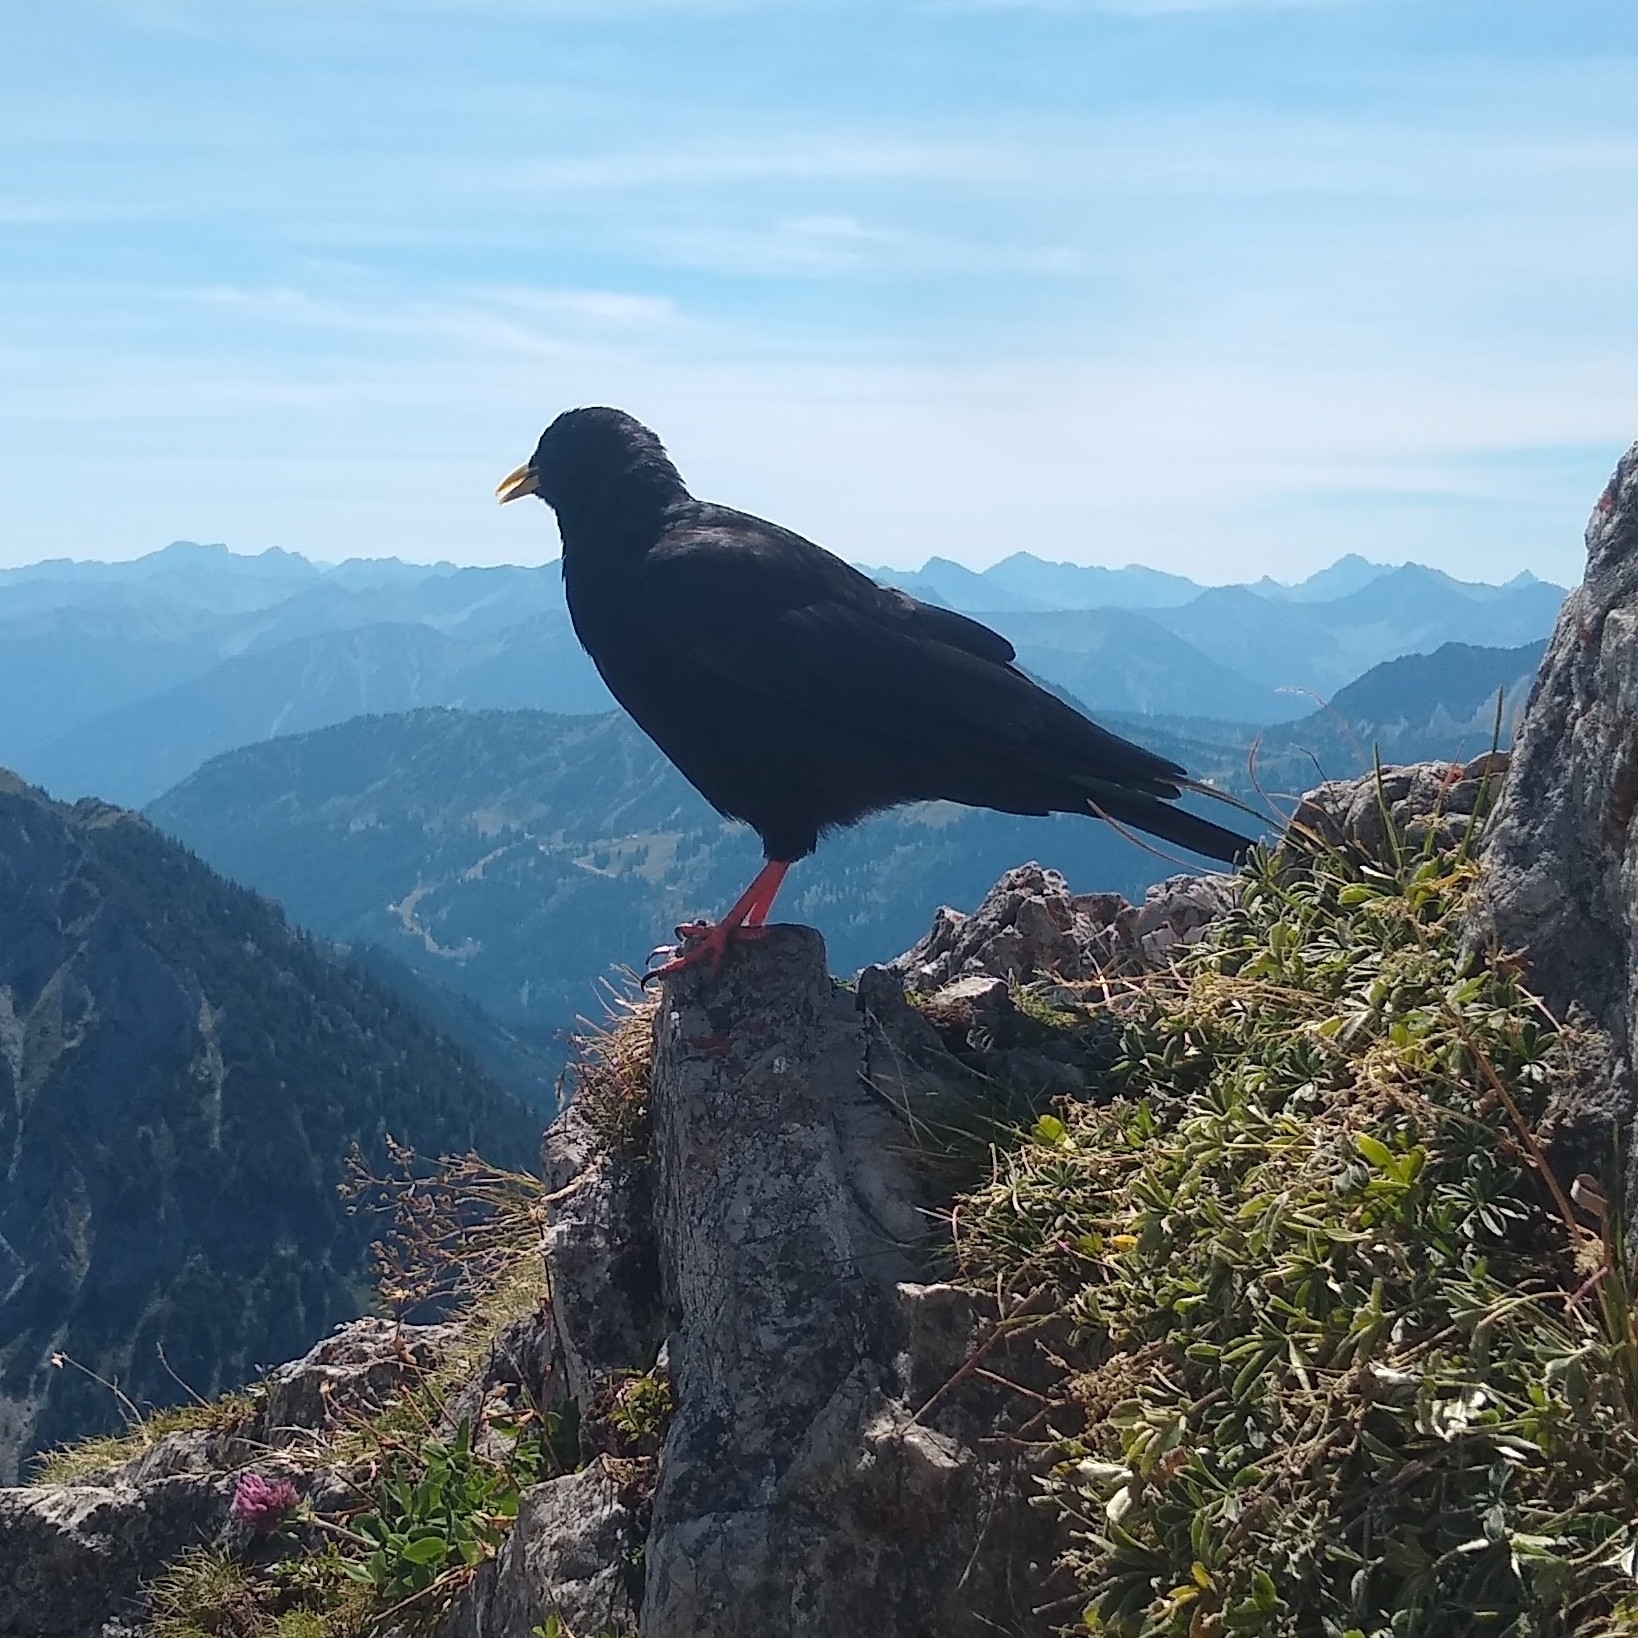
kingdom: Animalia
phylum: Chordata
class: Aves
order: Passeriformes
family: Corvidae
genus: Pyrrhocorax
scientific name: Pyrrhocorax graculus
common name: Alpine chough
